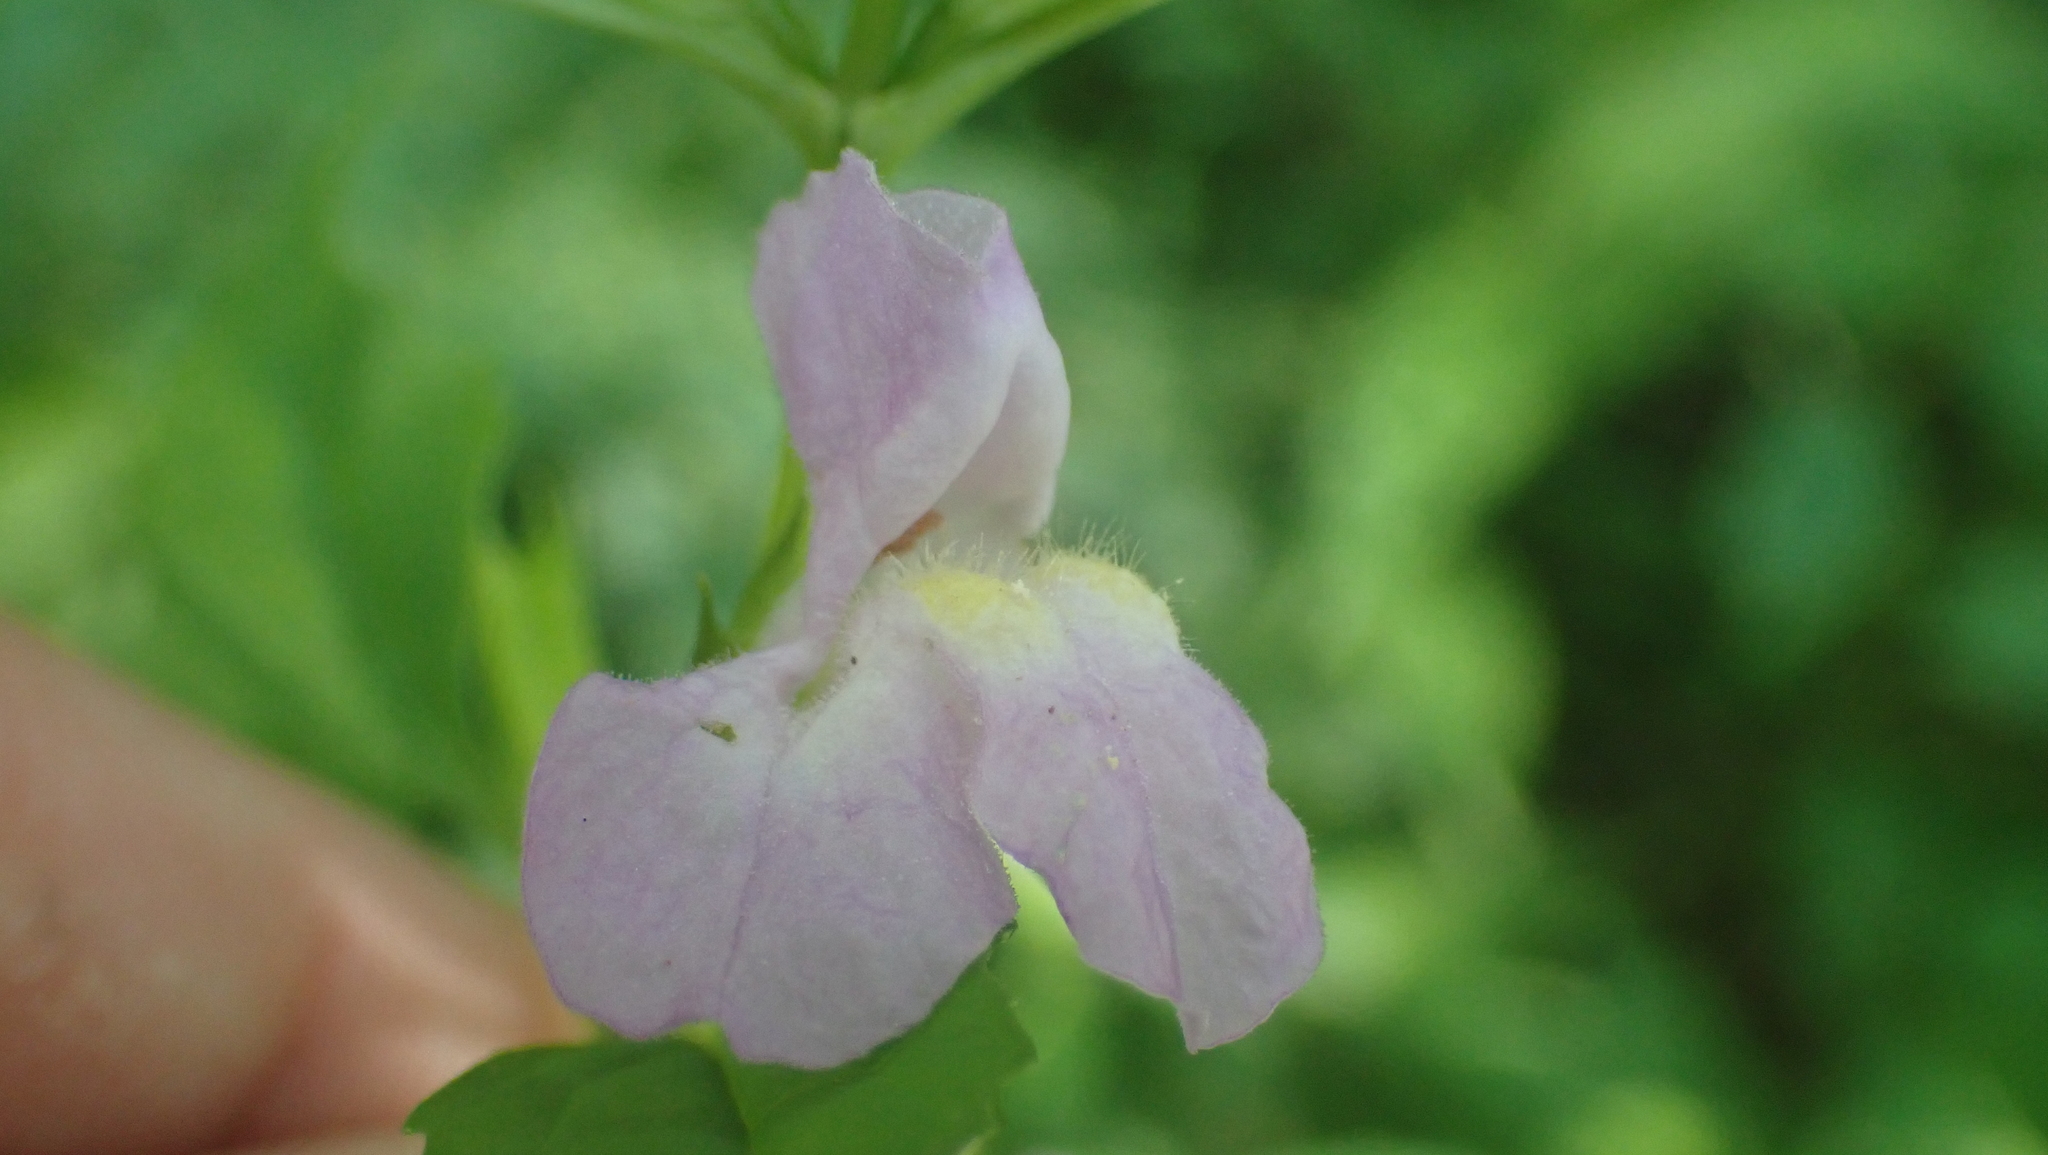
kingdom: Plantae
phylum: Tracheophyta
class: Magnoliopsida
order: Lamiales
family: Phrymaceae
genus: Mimulus
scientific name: Mimulus alatus
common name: Sharp-wing monkey-flower
